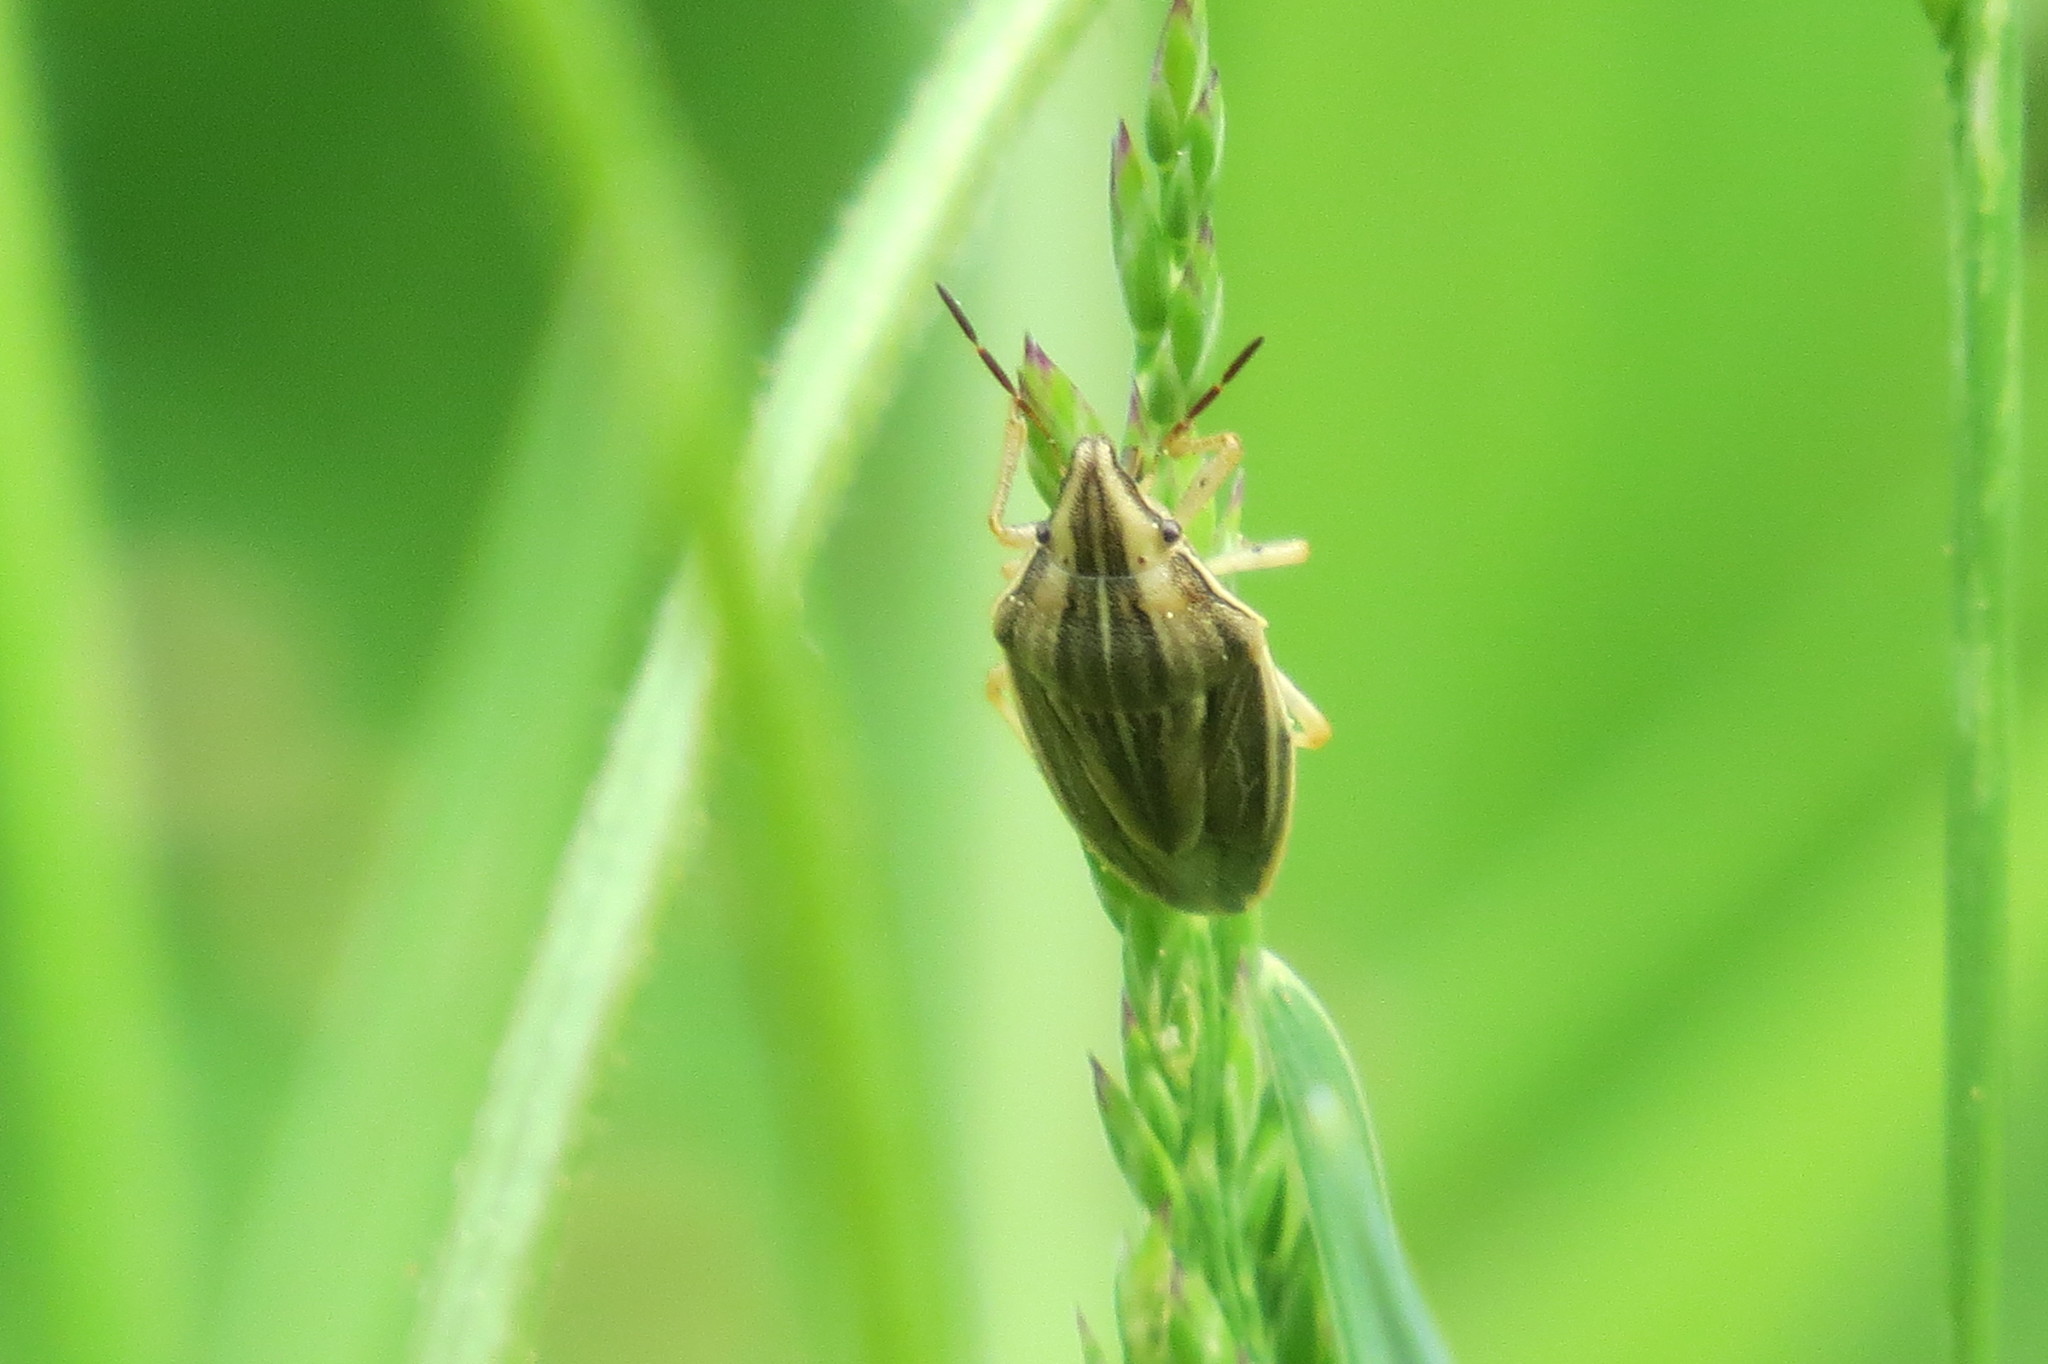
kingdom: Animalia
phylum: Arthropoda
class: Insecta
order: Hemiptera
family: Pentatomidae
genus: Aelia
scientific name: Aelia acuminata
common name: Bishop's mitre
